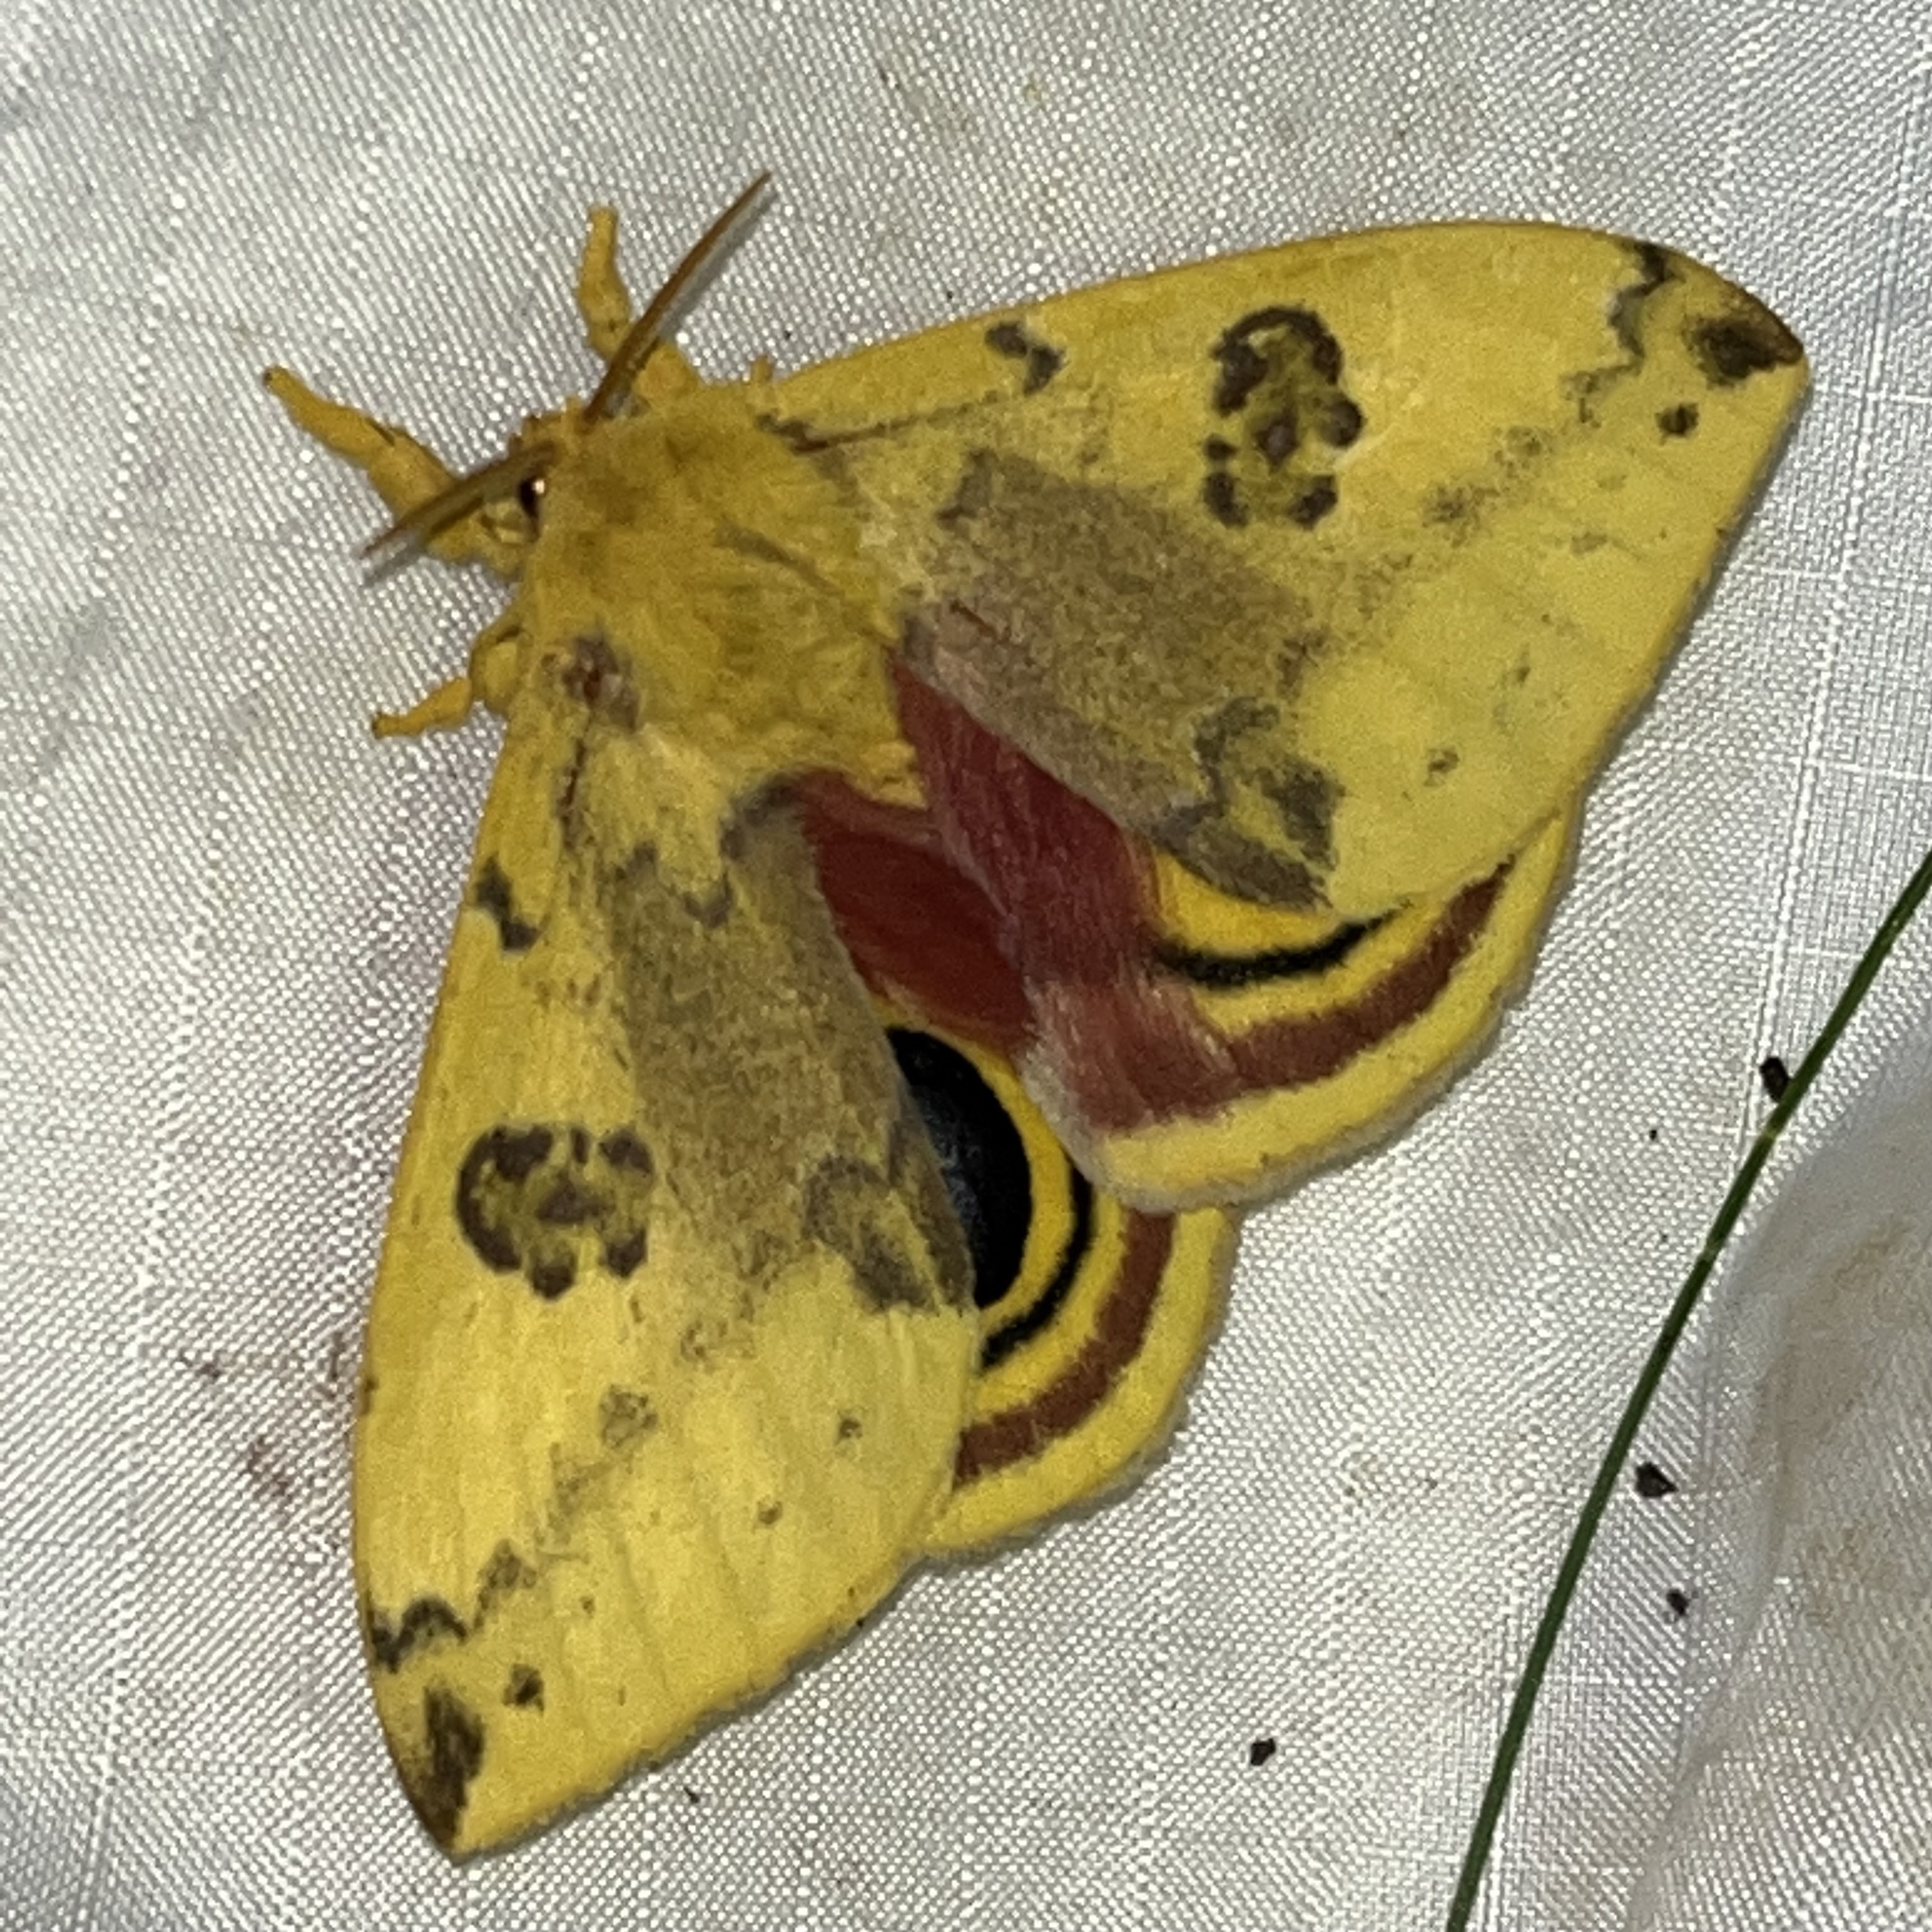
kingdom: Animalia
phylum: Arthropoda
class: Insecta
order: Lepidoptera
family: Saturniidae
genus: Automeris
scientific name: Automeris io
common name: Io moth
